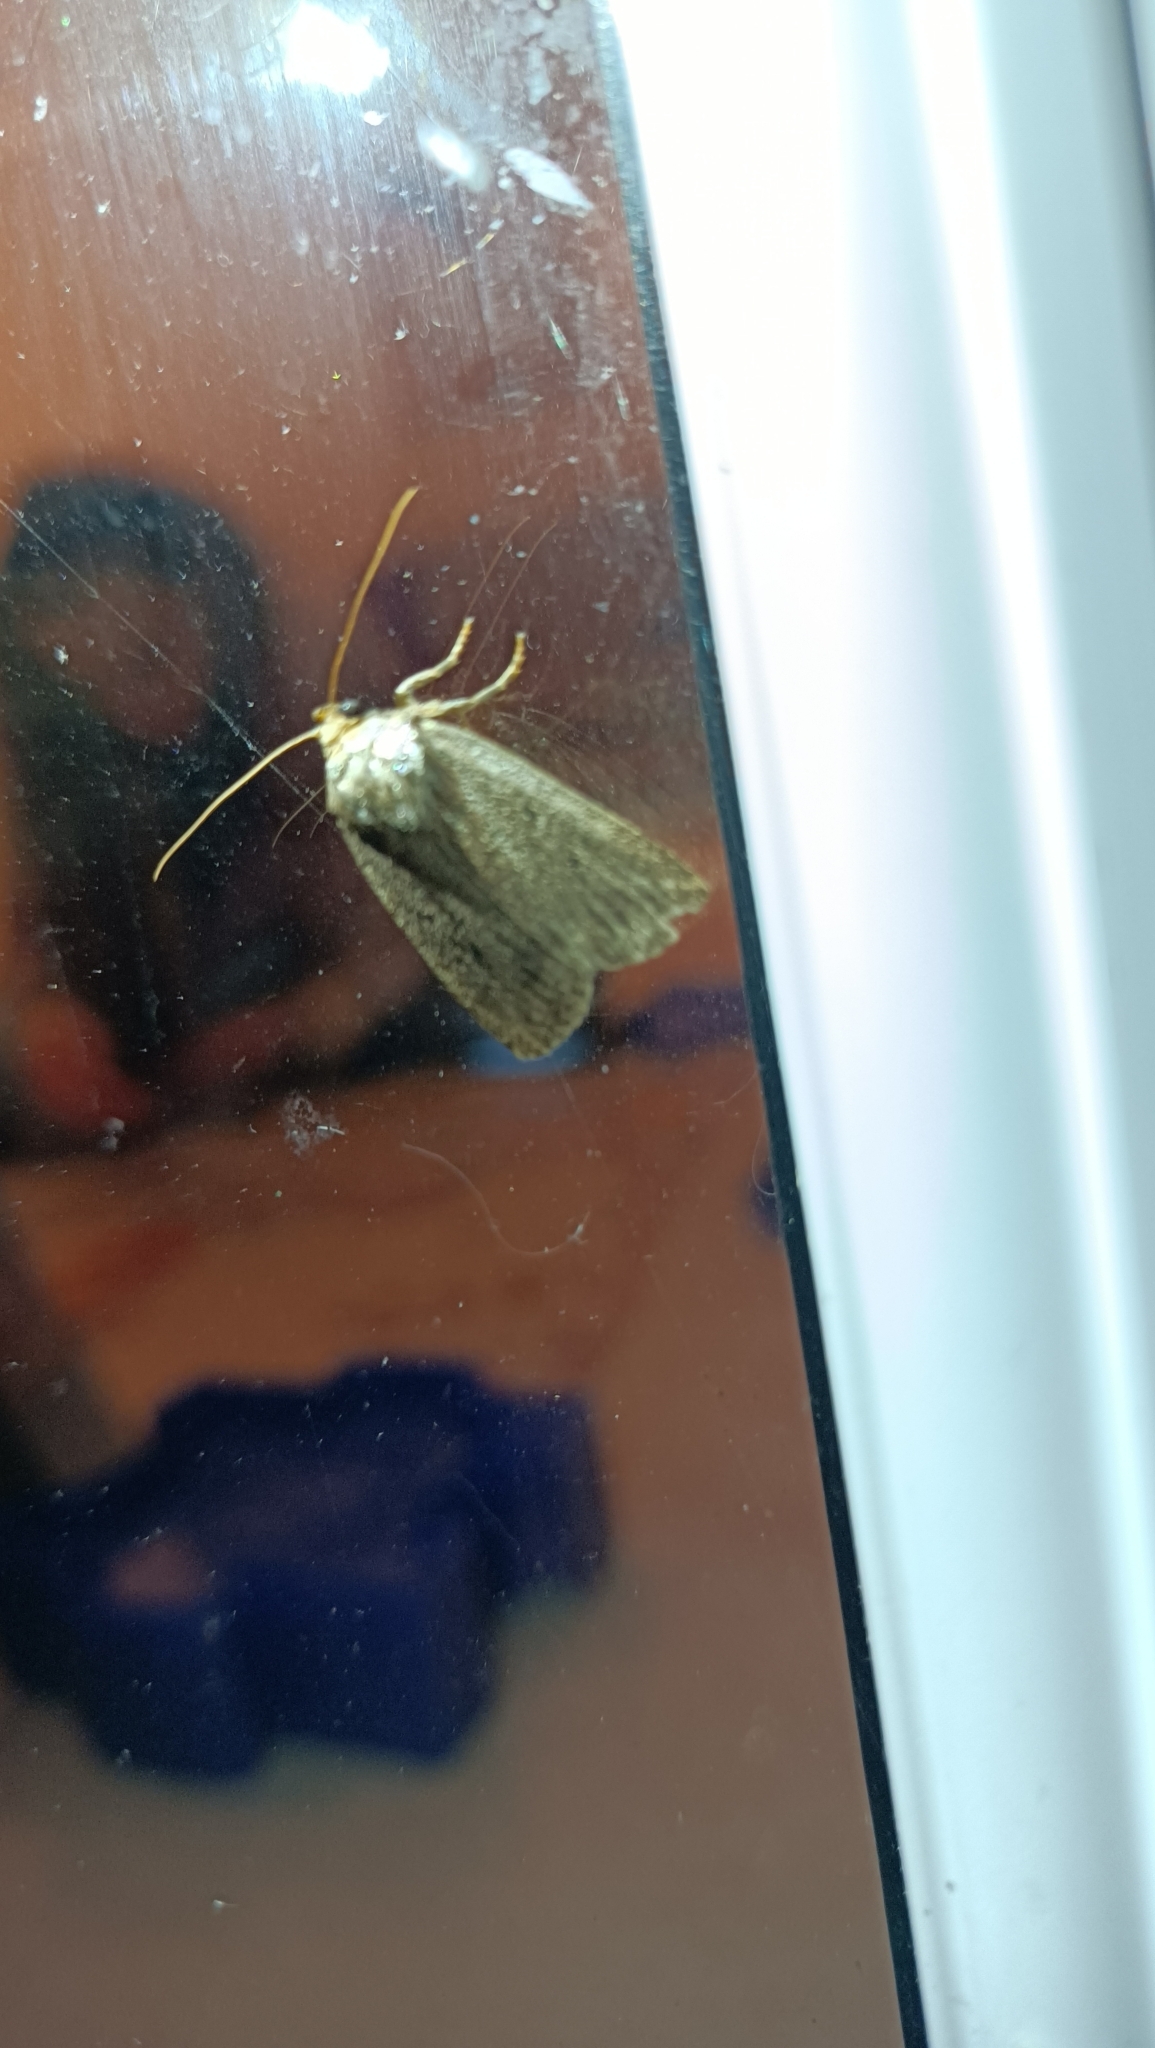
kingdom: Animalia
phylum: Arthropoda
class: Insecta
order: Lepidoptera
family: Noctuidae
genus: Amphipyra
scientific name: Amphipyra tragopoginis
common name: Mouse moth
